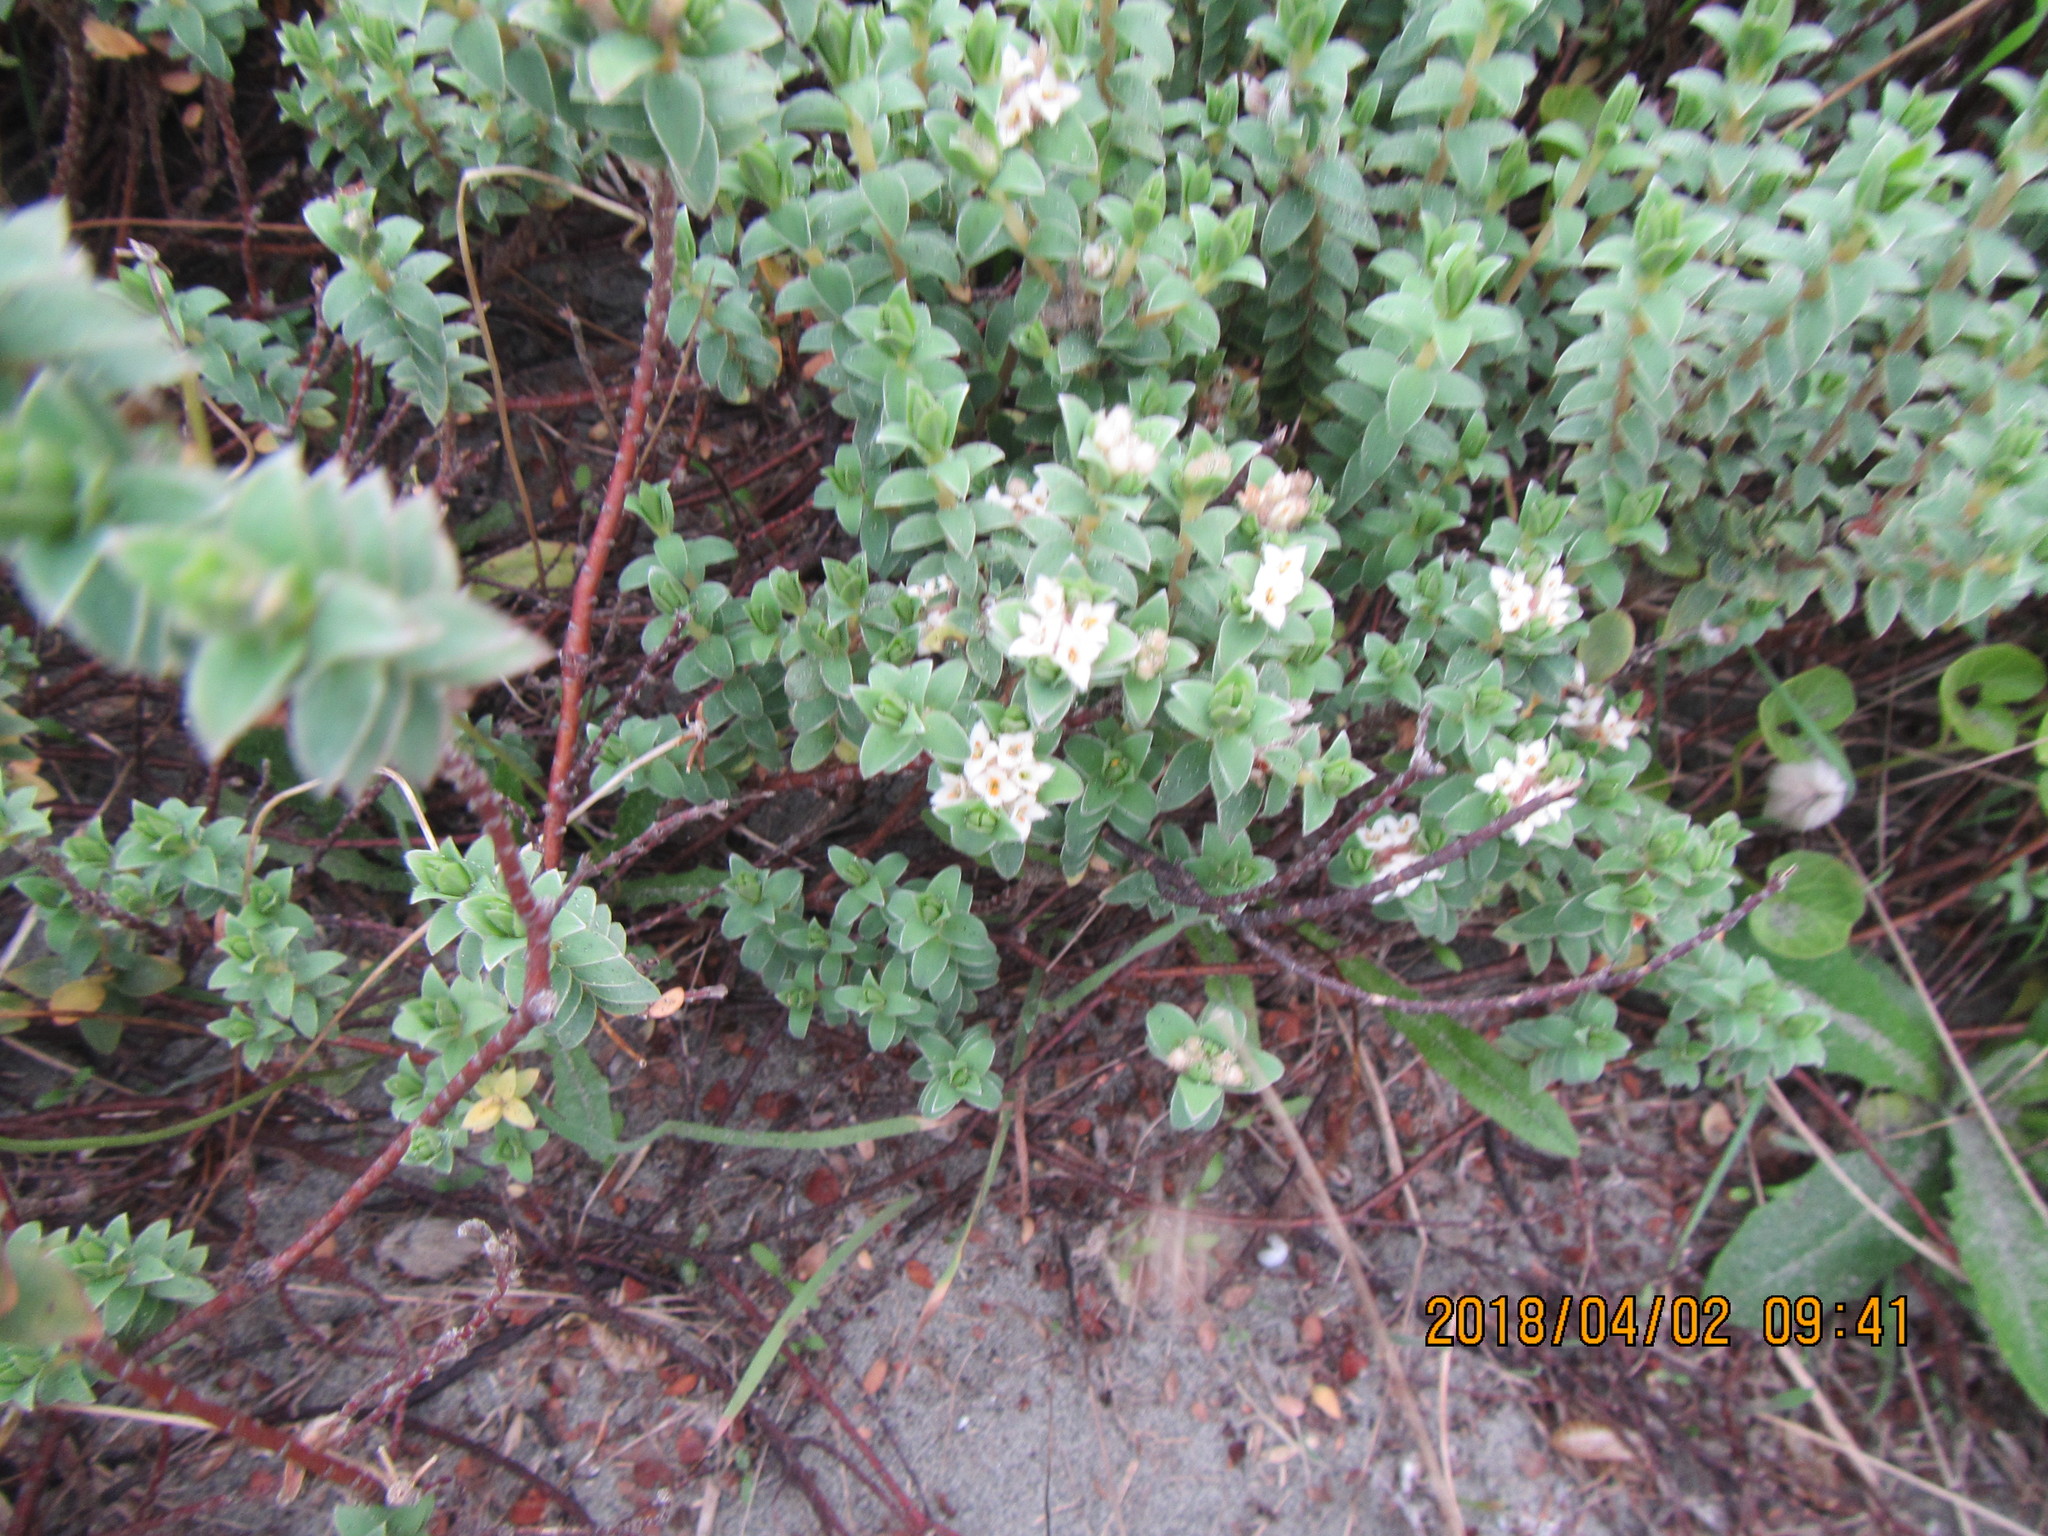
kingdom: Plantae
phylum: Tracheophyta
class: Magnoliopsida
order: Malvales
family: Thymelaeaceae
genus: Pimelea
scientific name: Pimelea villosa
